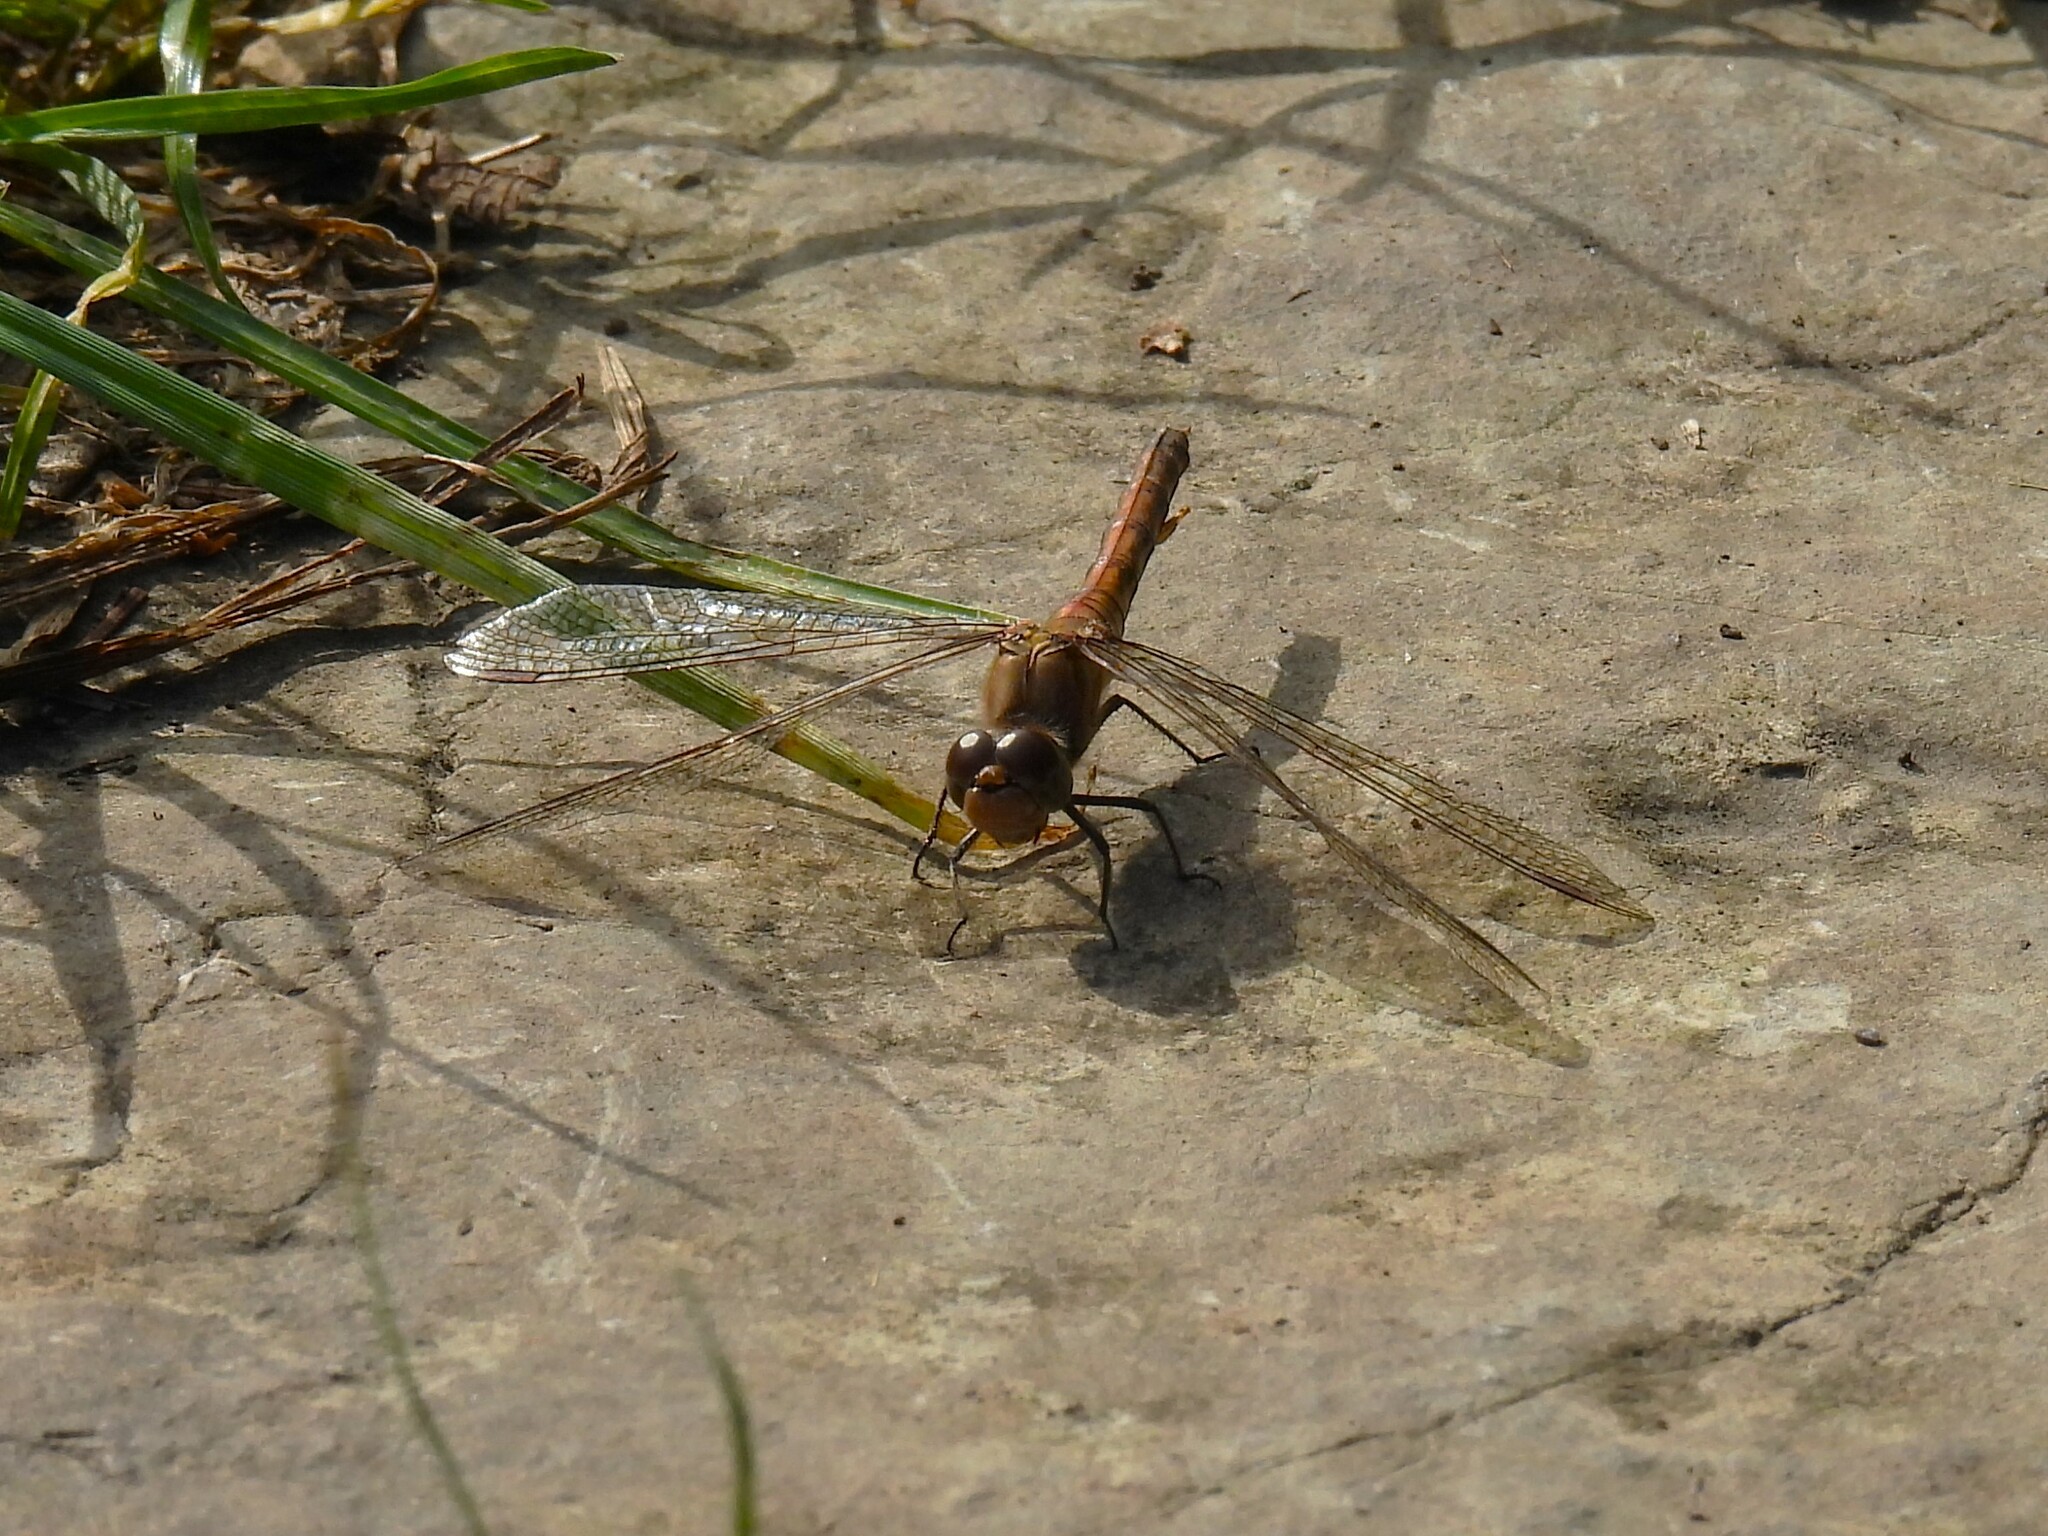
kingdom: Animalia
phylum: Arthropoda
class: Insecta
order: Odonata
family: Libellulidae
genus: Sympetrum
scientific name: Sympetrum striolatum
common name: Common darter
